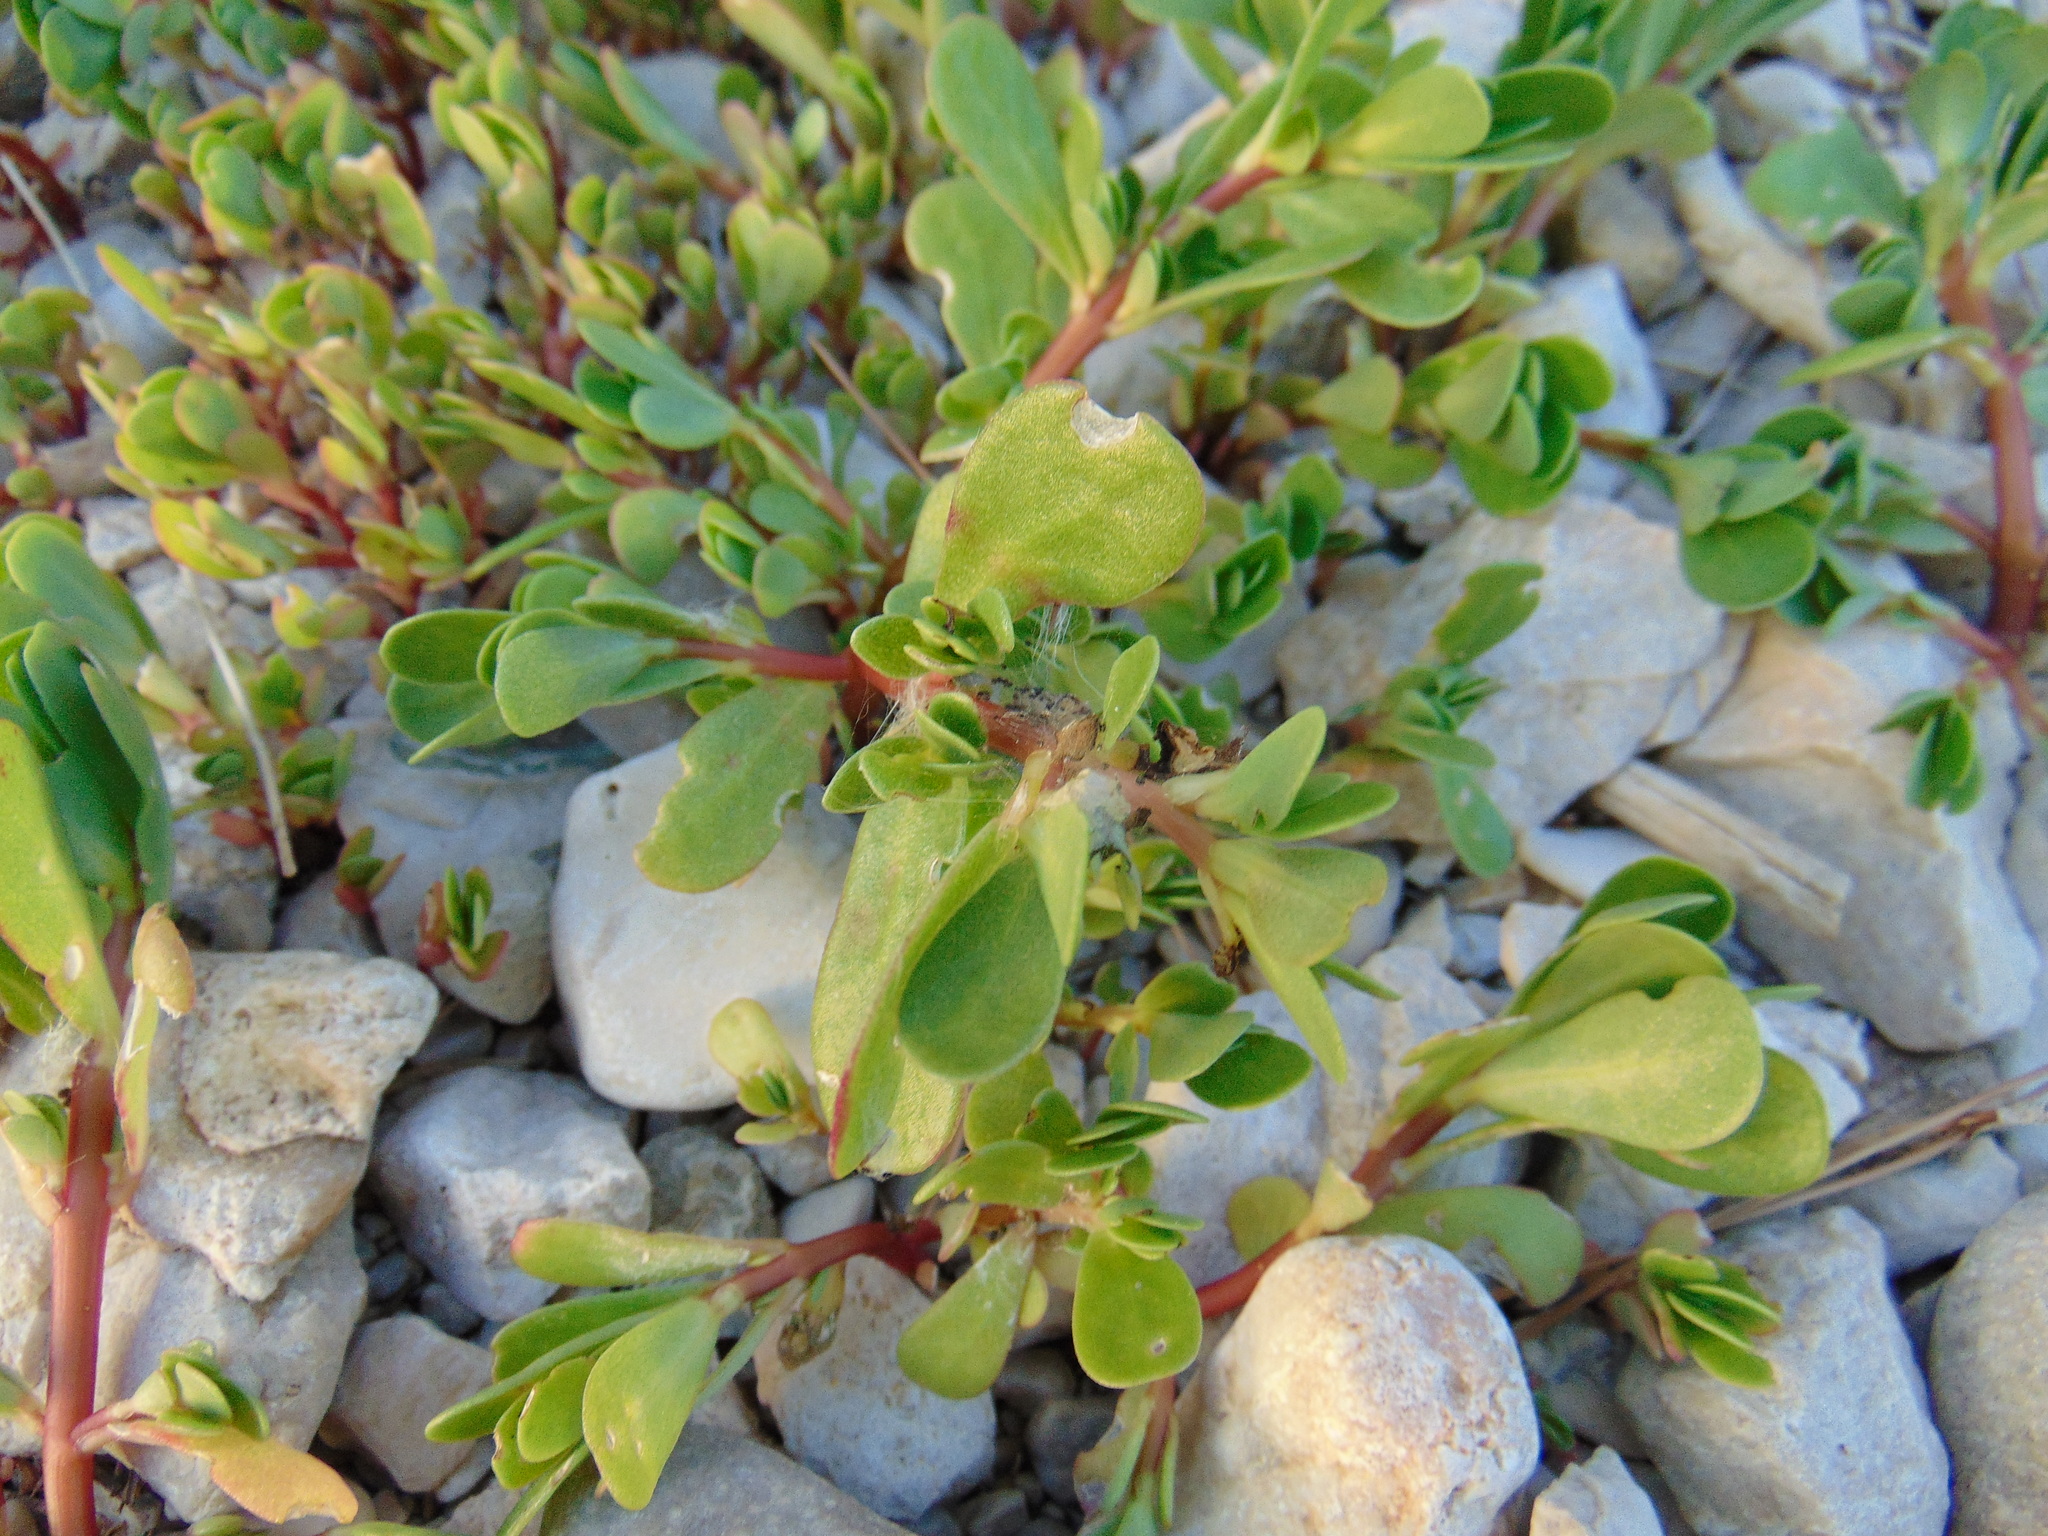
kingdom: Plantae
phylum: Tracheophyta
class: Magnoliopsida
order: Caryophyllales
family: Portulacaceae
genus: Portulaca
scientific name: Portulaca oleracea
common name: Common purslane
